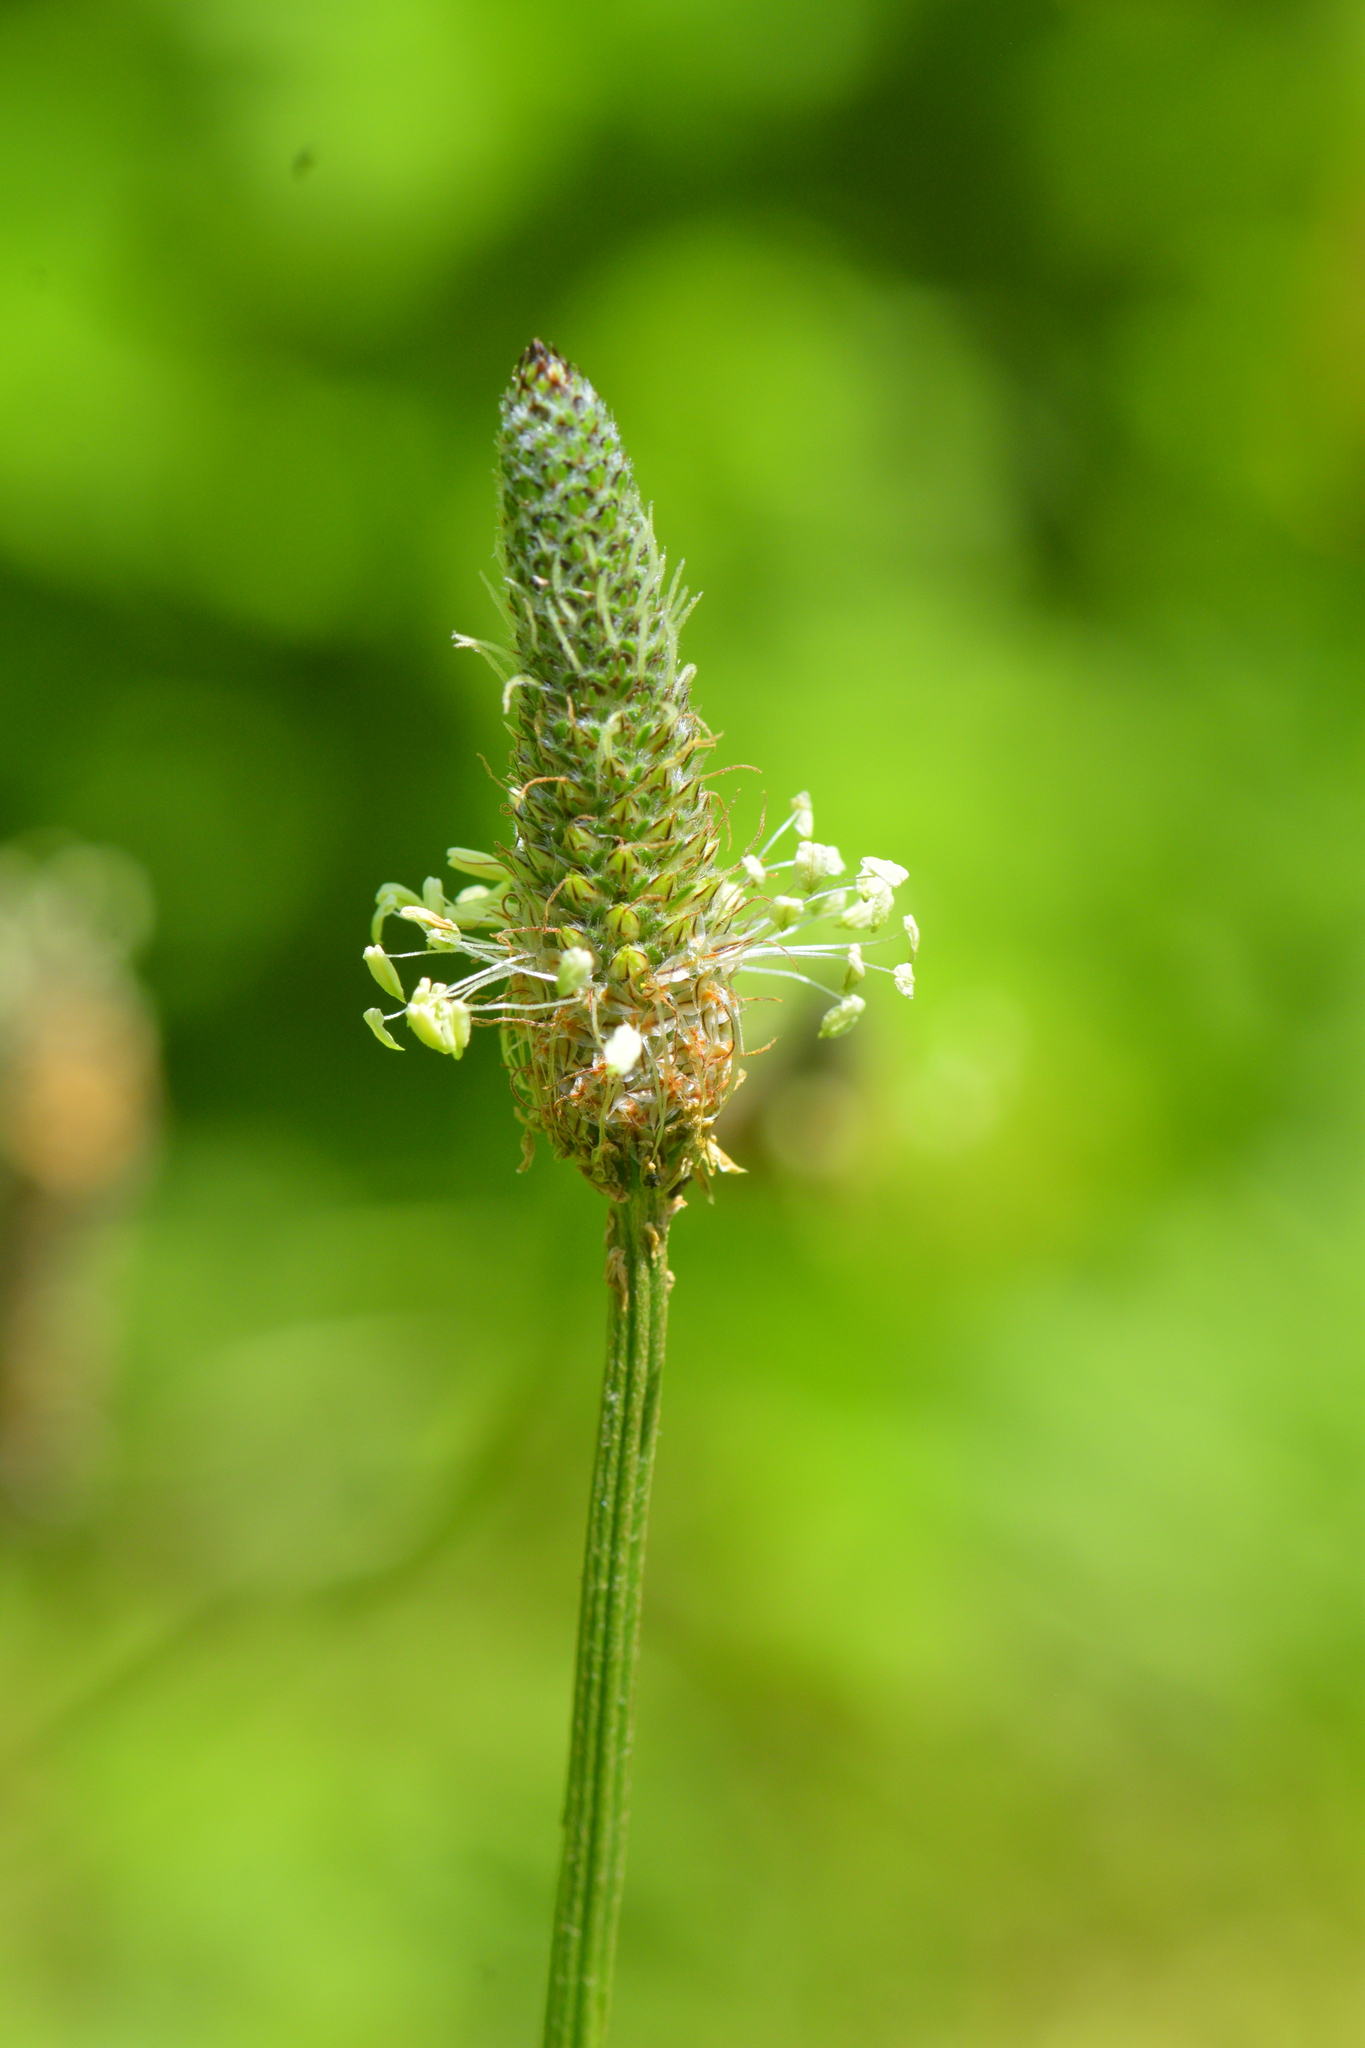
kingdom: Plantae
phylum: Tracheophyta
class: Magnoliopsida
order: Lamiales
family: Plantaginaceae
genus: Plantago
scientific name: Plantago lanceolata
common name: Ribwort plantain
